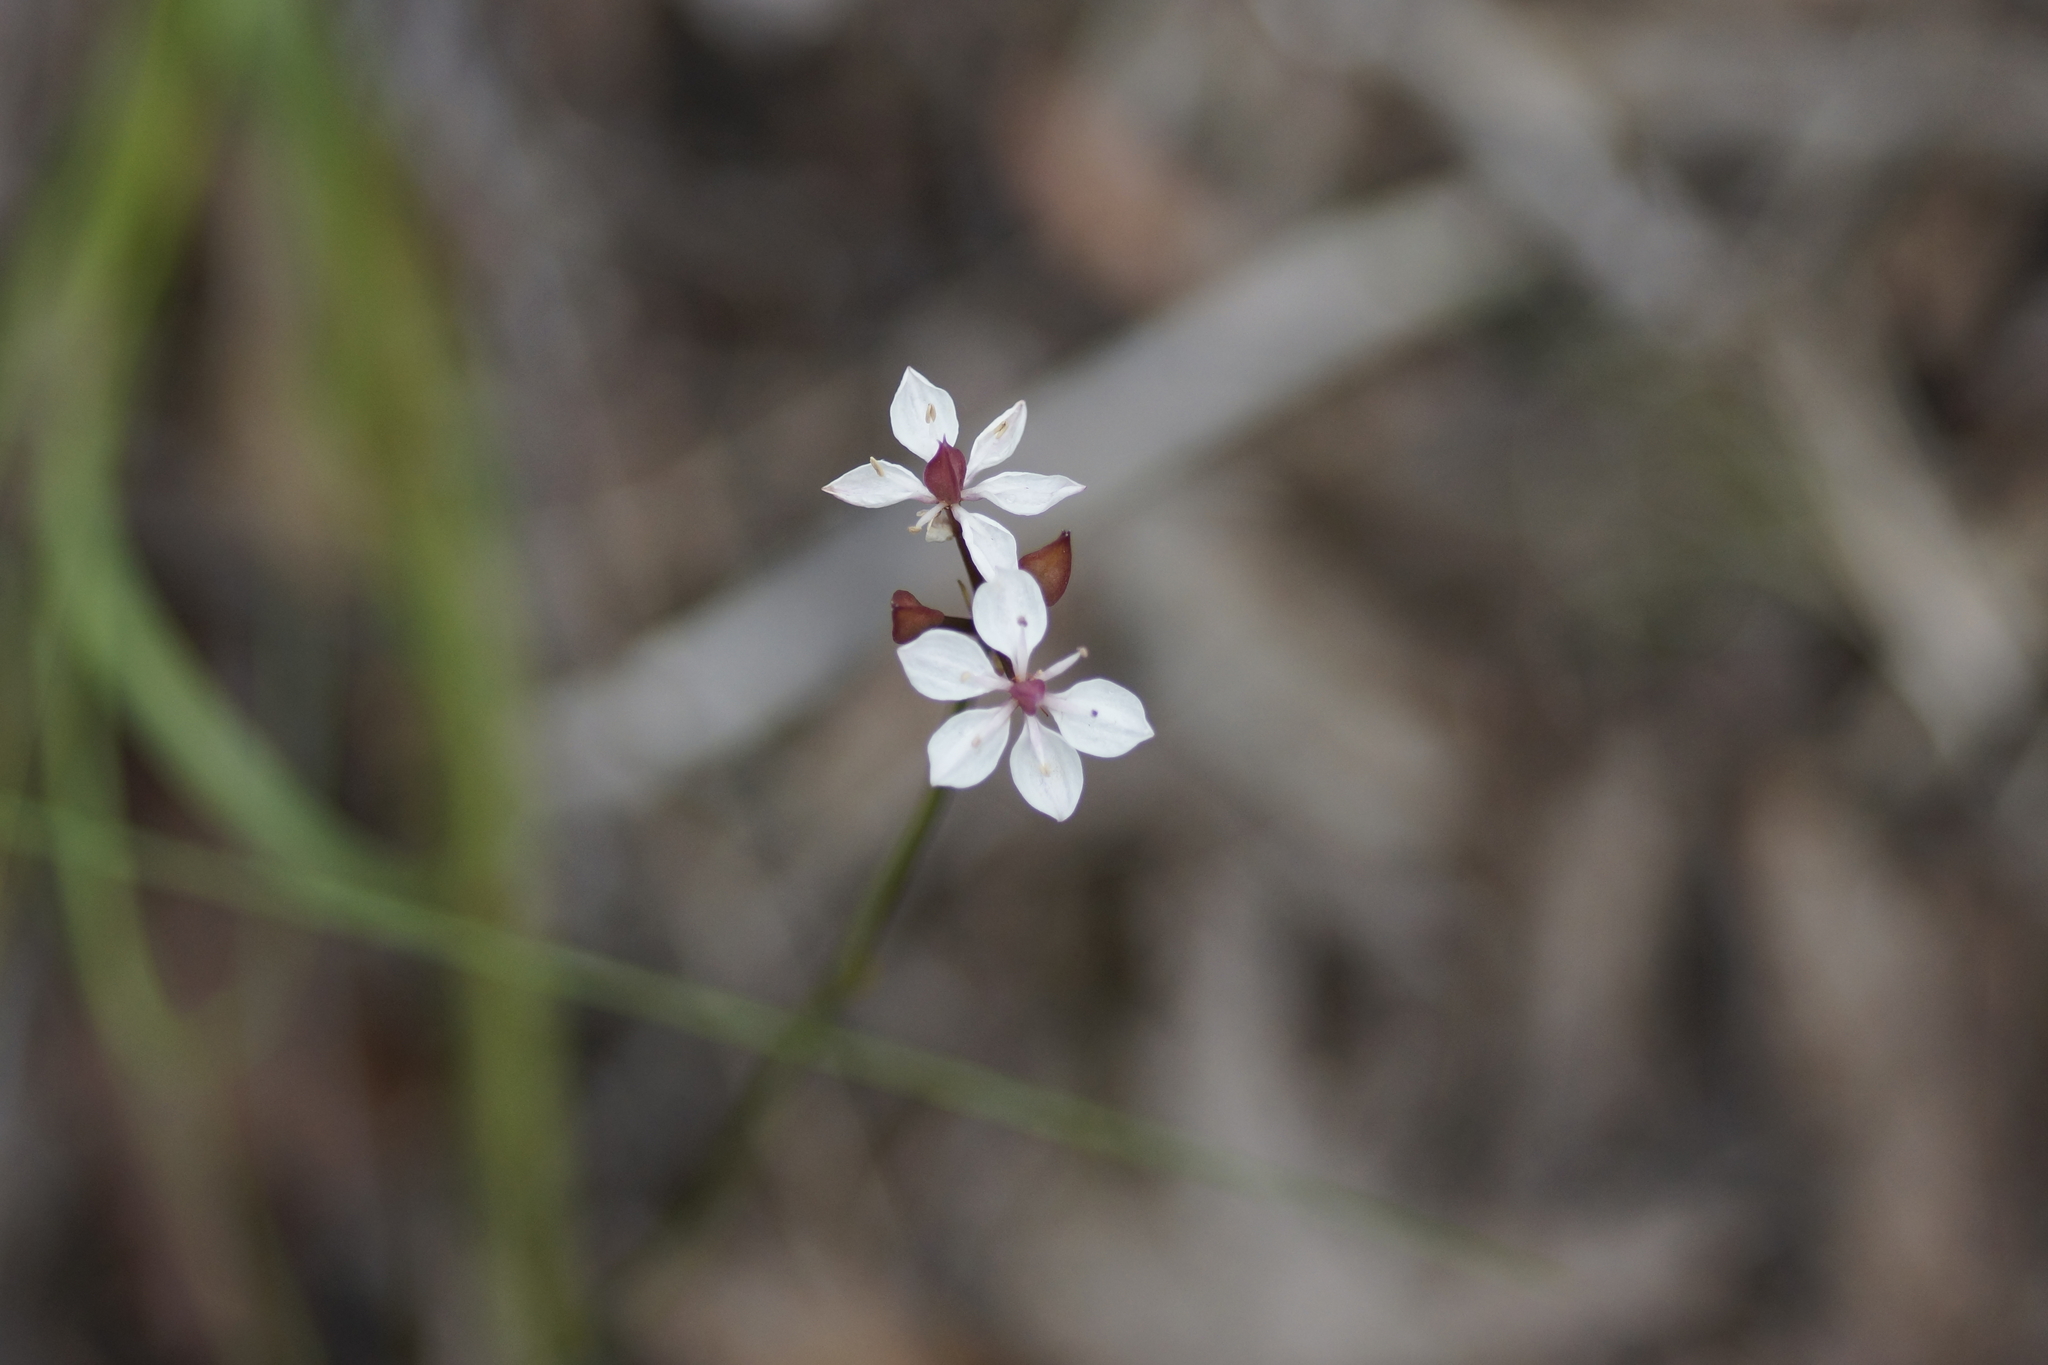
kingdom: Plantae
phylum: Tracheophyta
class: Liliopsida
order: Liliales
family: Colchicaceae
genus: Burchardia
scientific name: Burchardia umbellata
